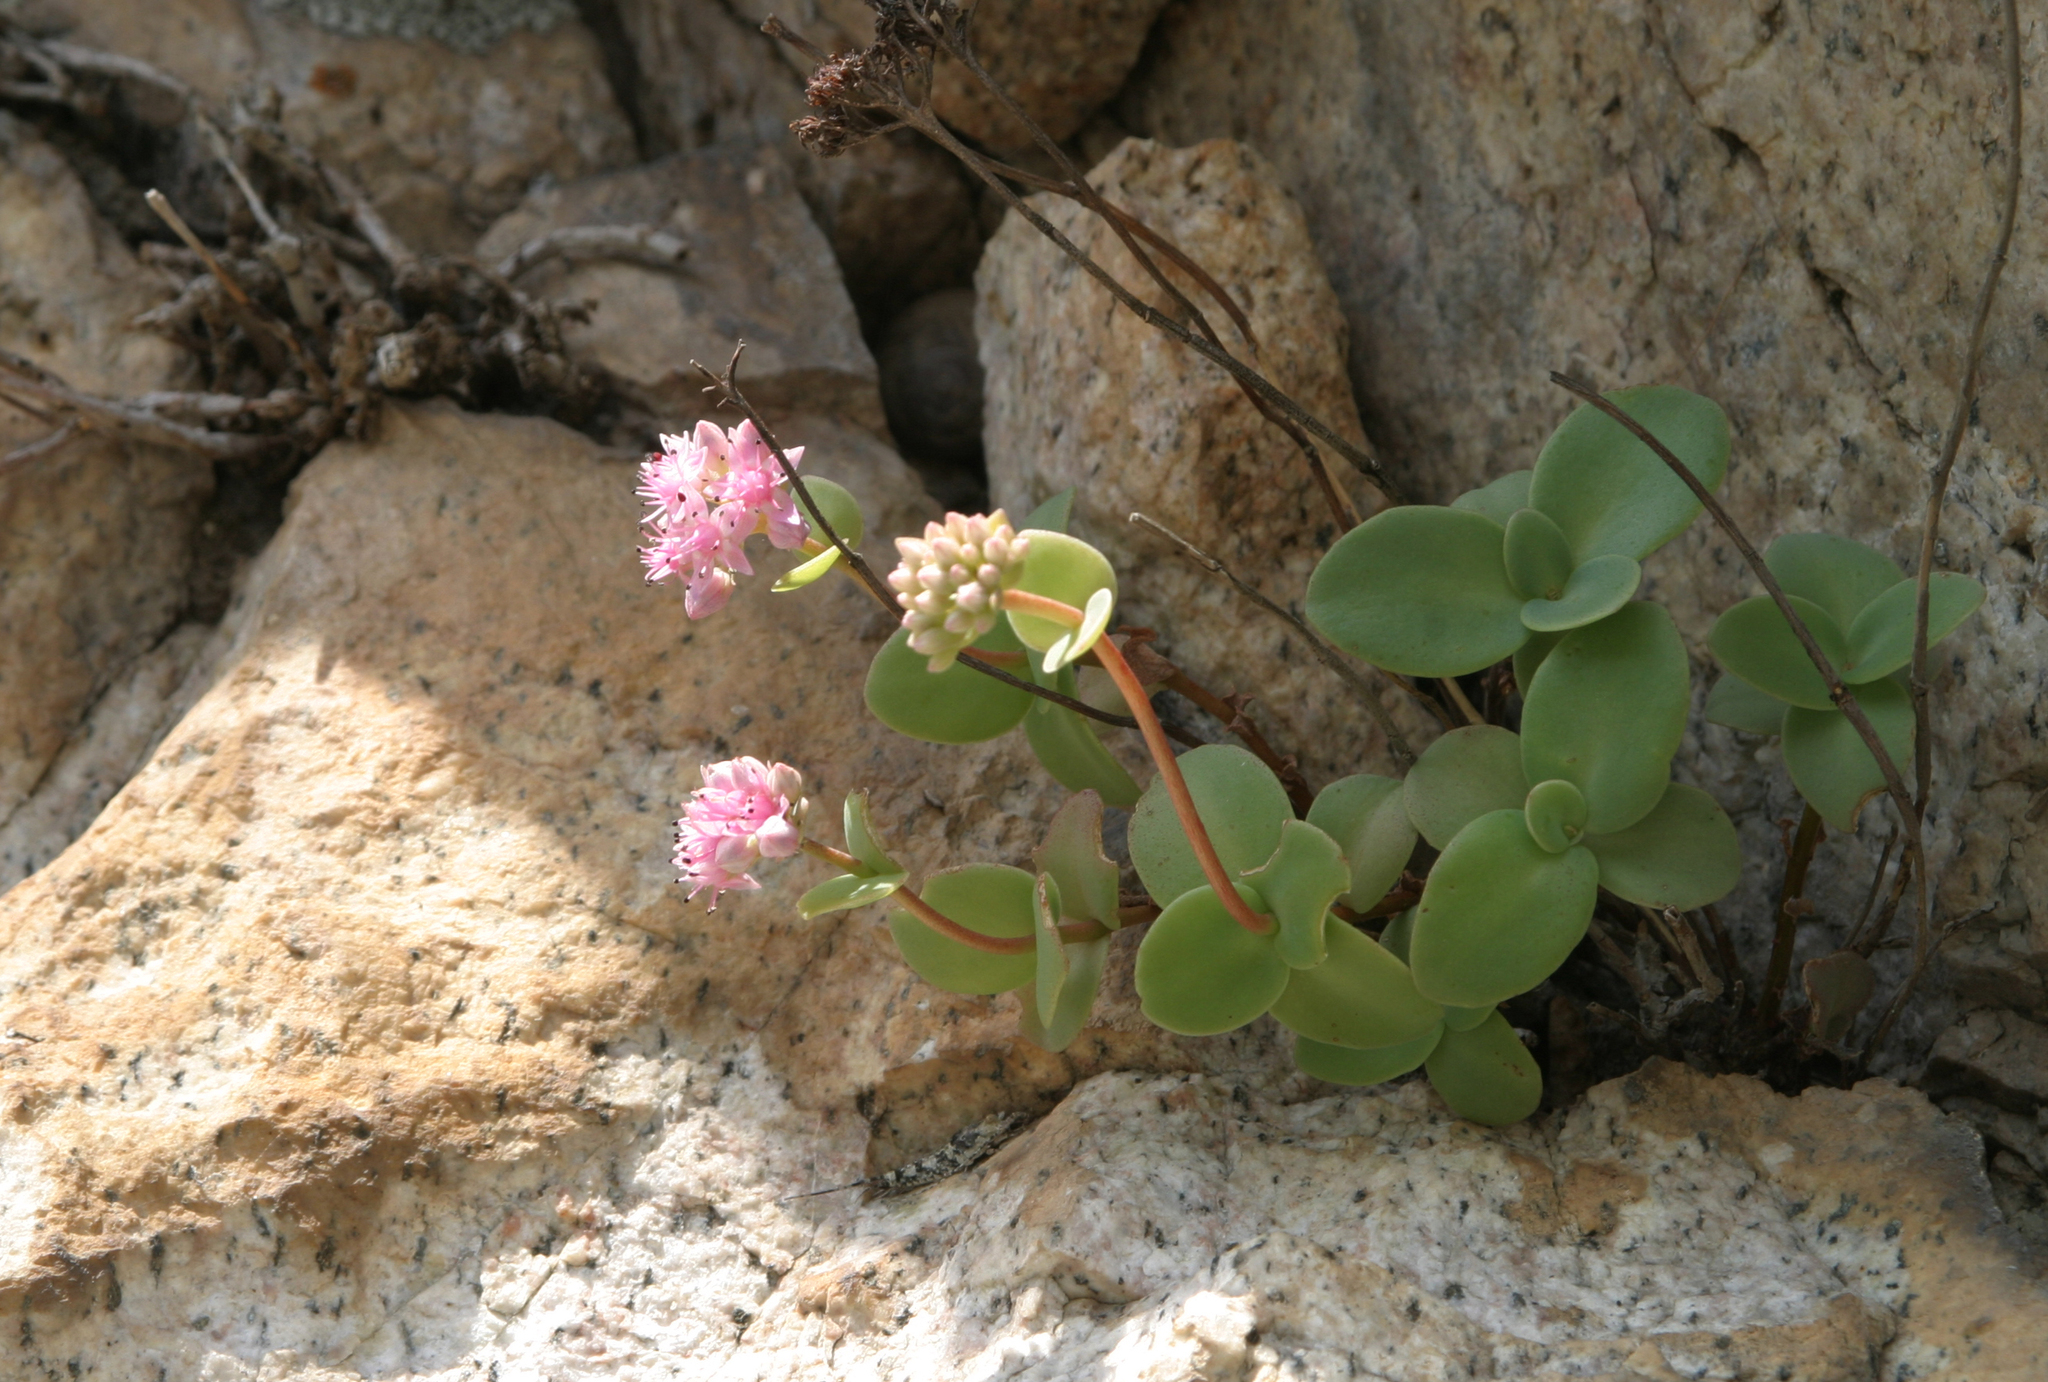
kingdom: Plantae
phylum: Tracheophyta
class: Magnoliopsida
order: Saxifragales
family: Crassulaceae
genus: Hylotelephium
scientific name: Hylotelephium ewersii
